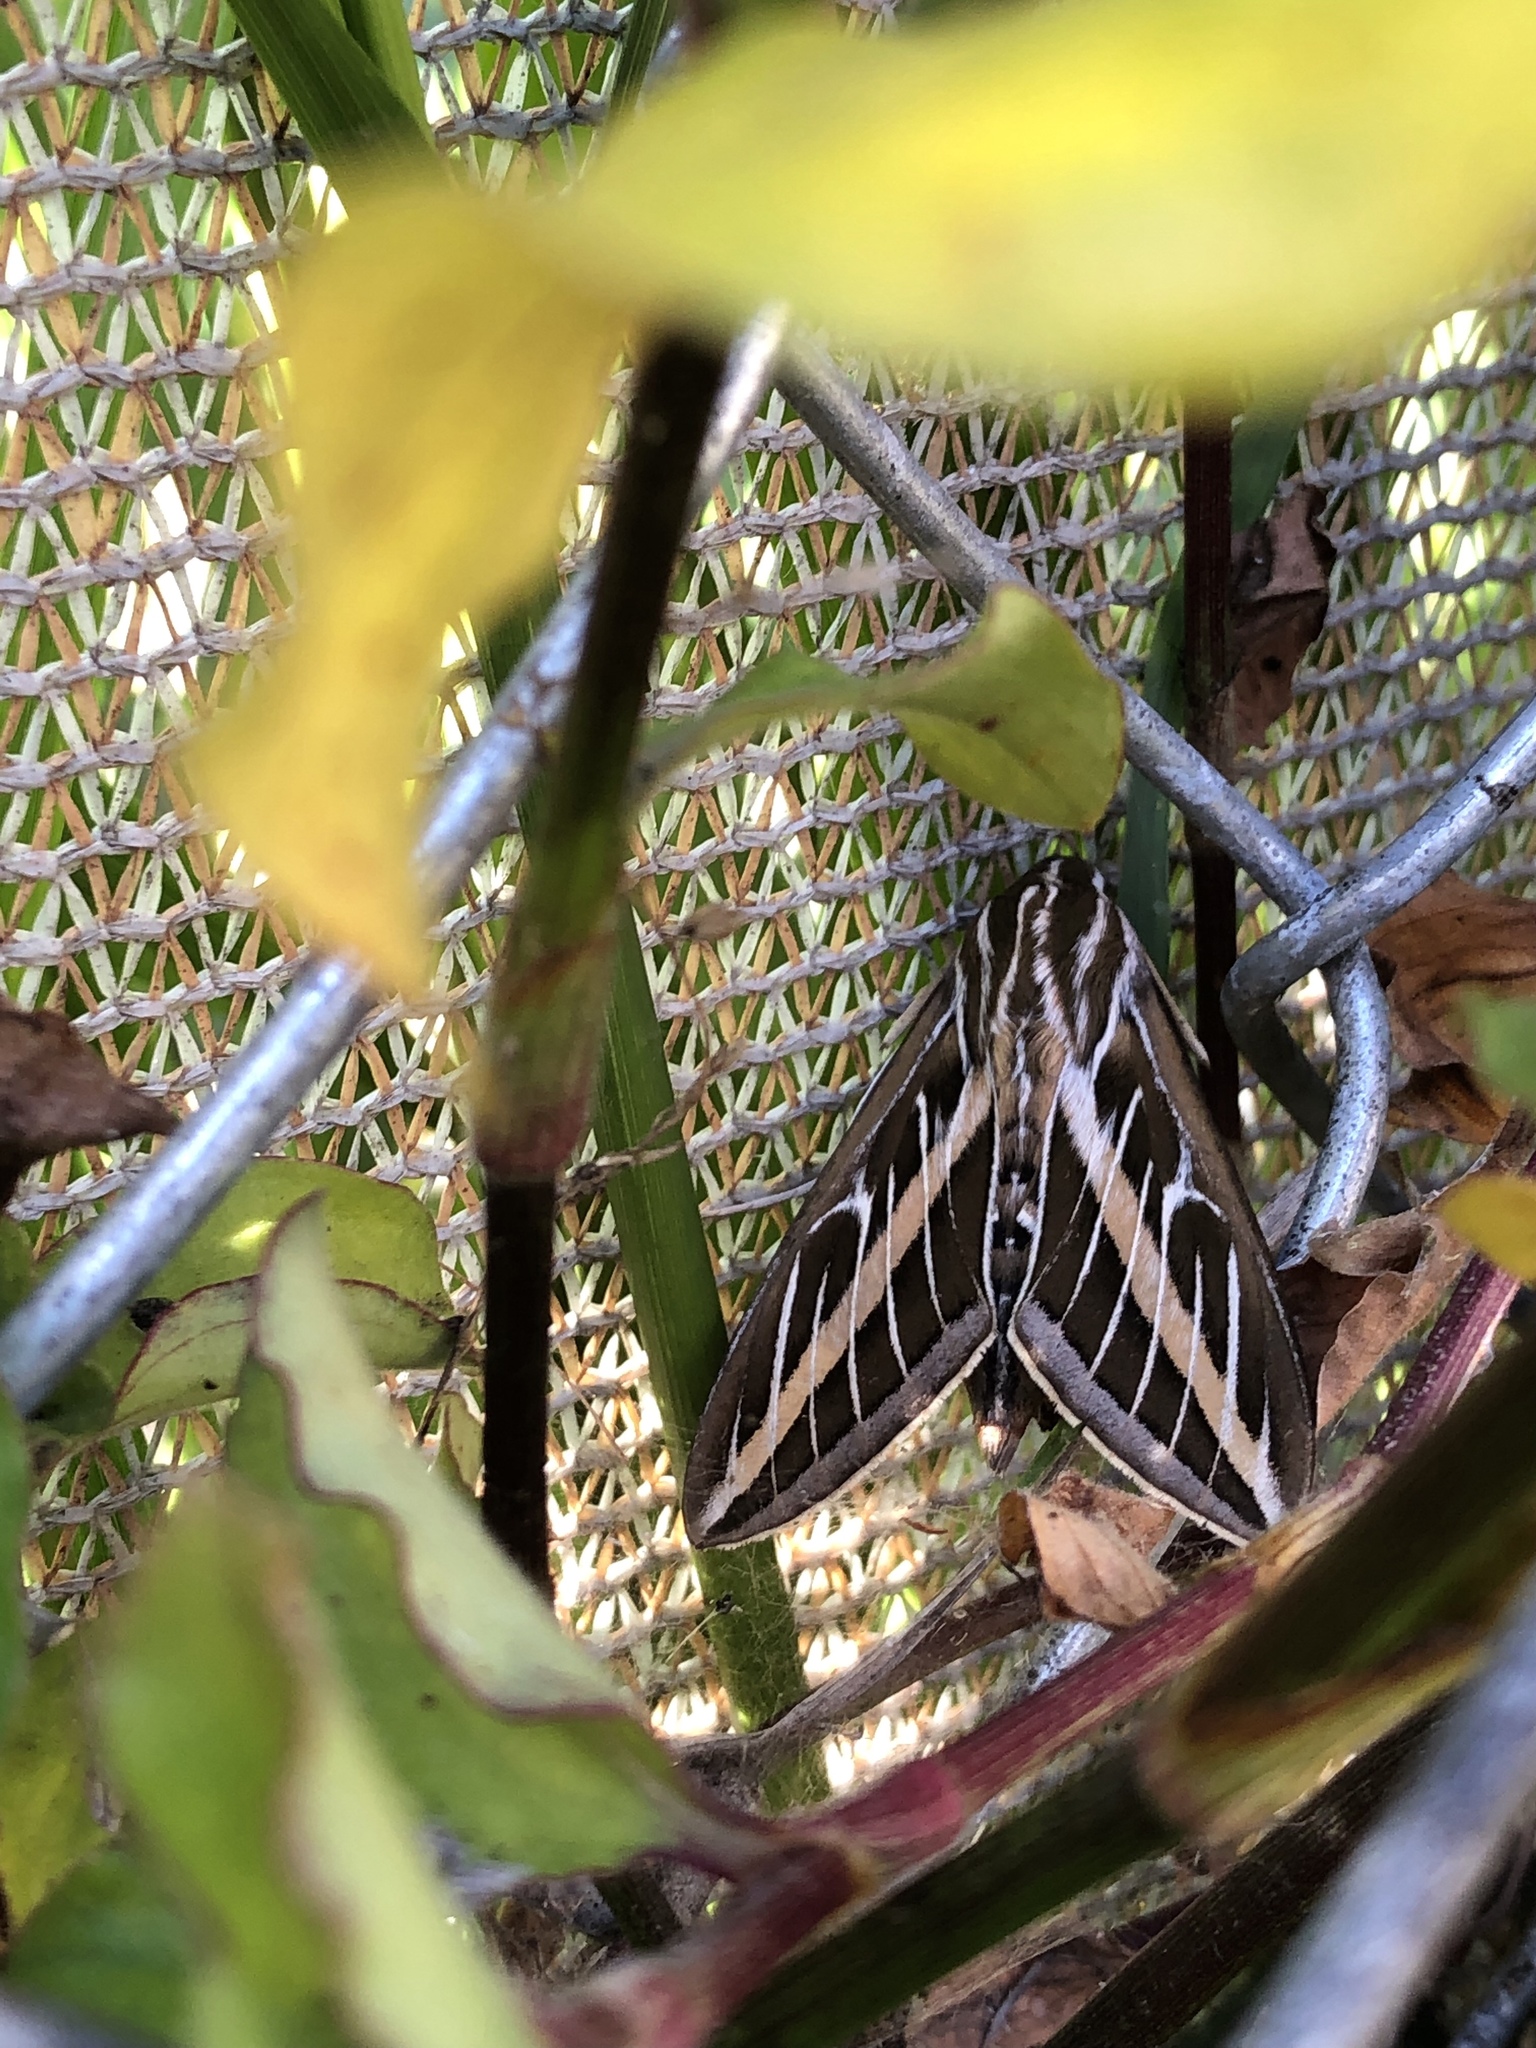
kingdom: Animalia
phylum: Arthropoda
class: Insecta
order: Lepidoptera
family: Sphingidae
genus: Hyles
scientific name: Hyles lineata
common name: White-lined sphinx
